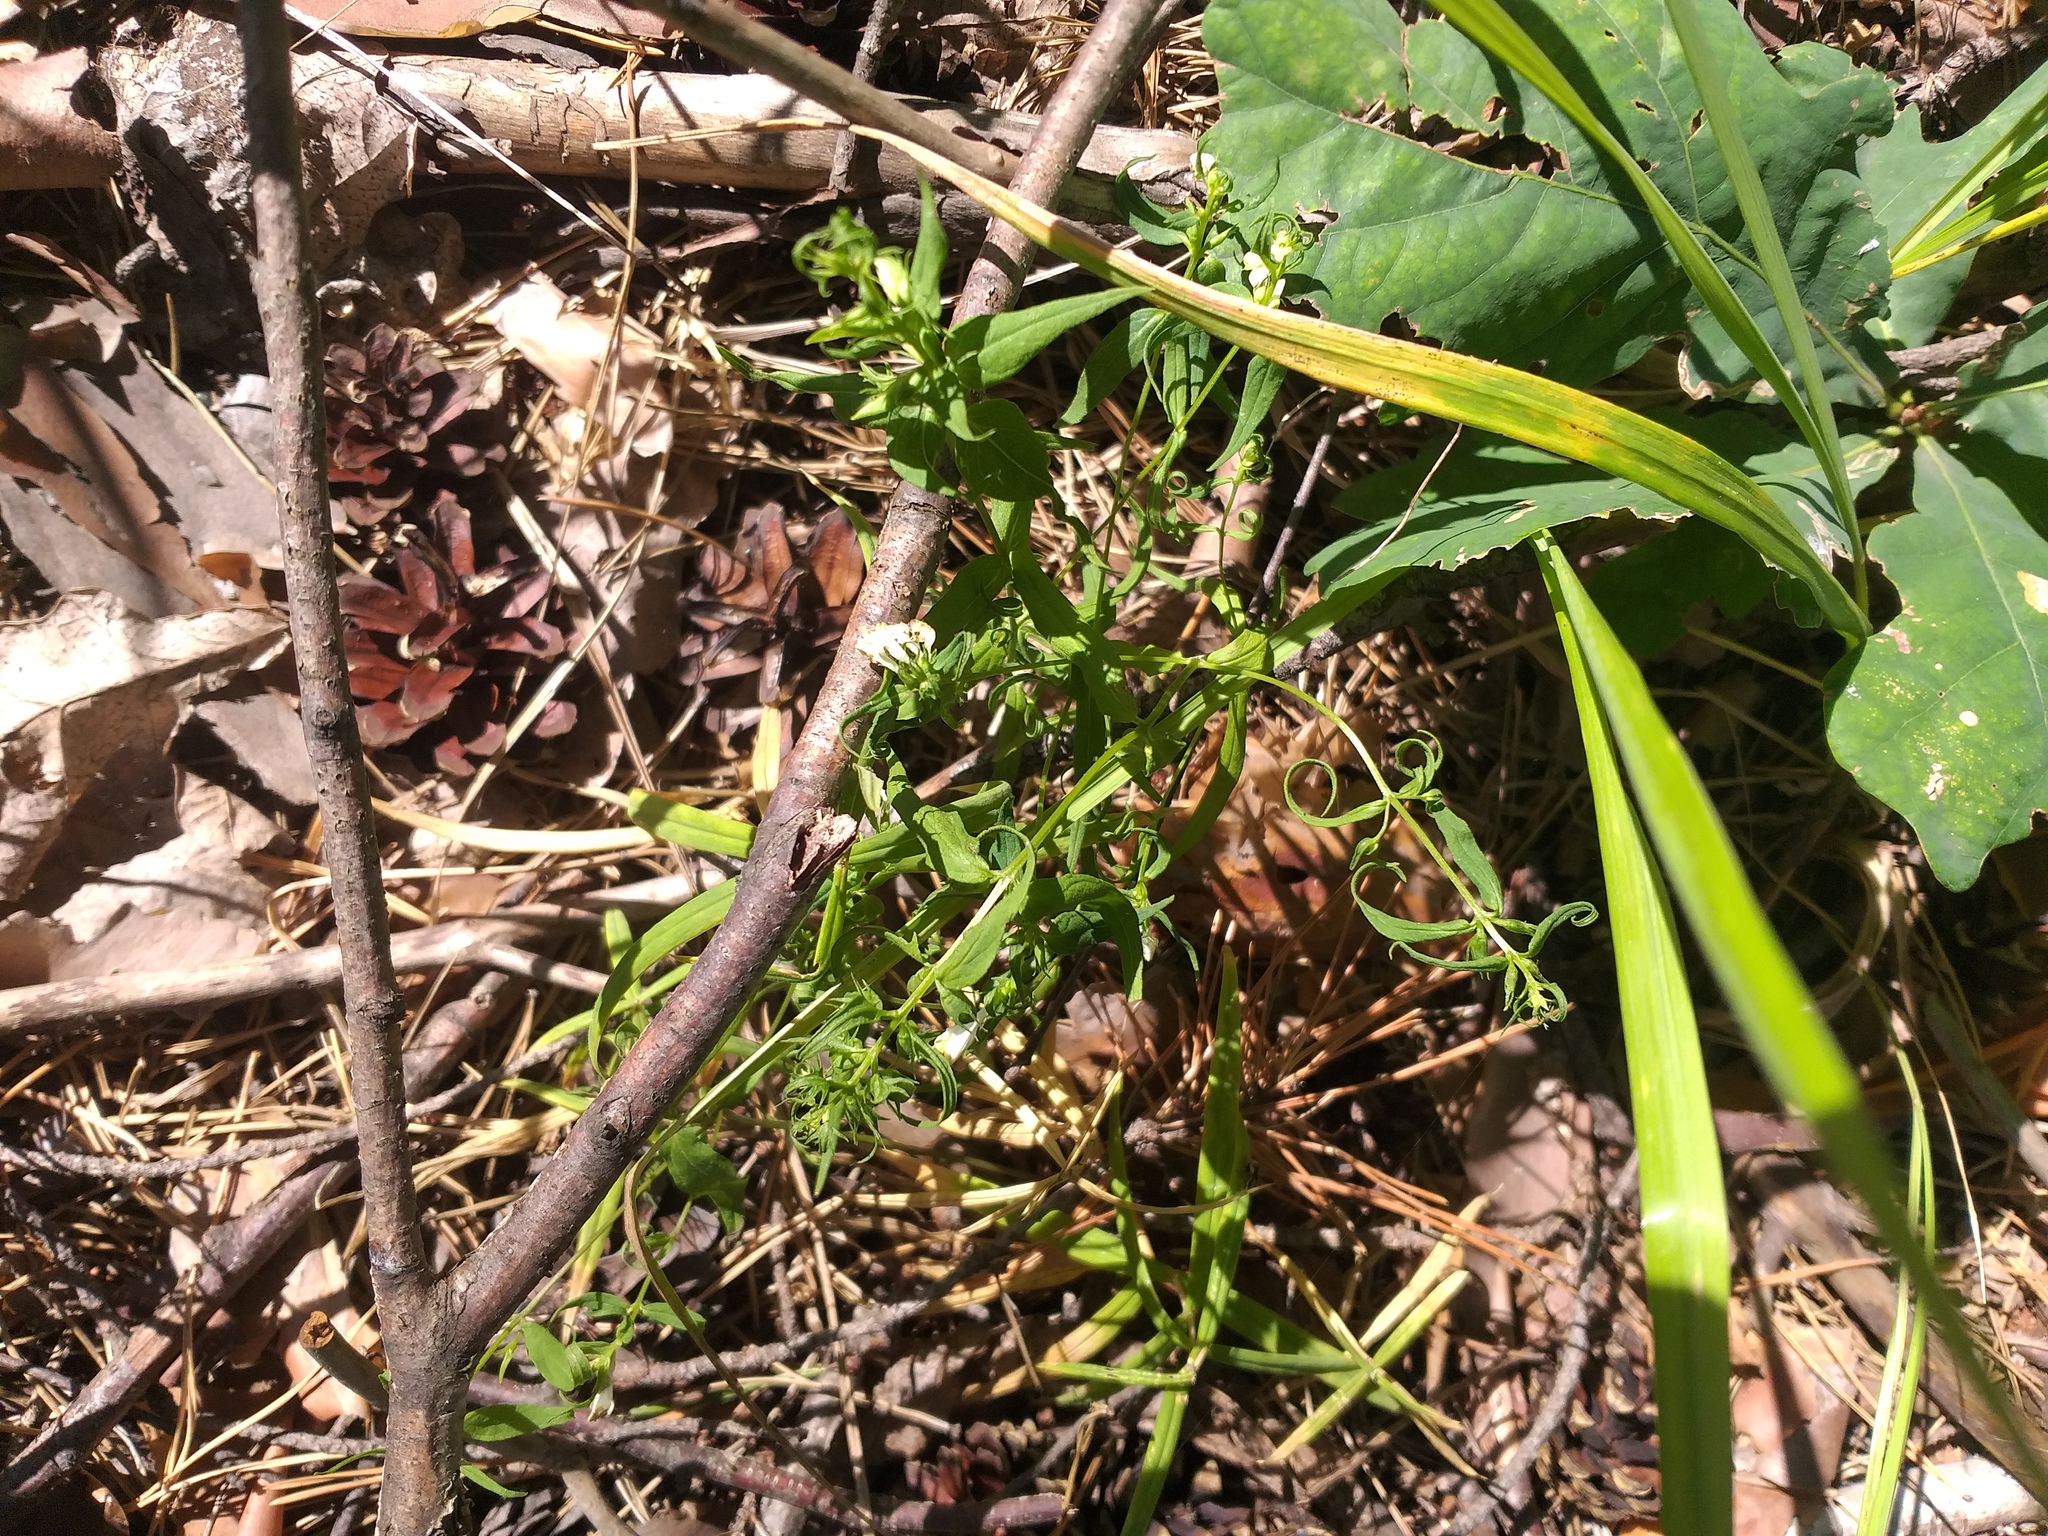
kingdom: Plantae
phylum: Tracheophyta
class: Magnoliopsida
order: Lamiales
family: Orobanchaceae
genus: Melampyrum
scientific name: Melampyrum pratense
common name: Common cow-wheat
